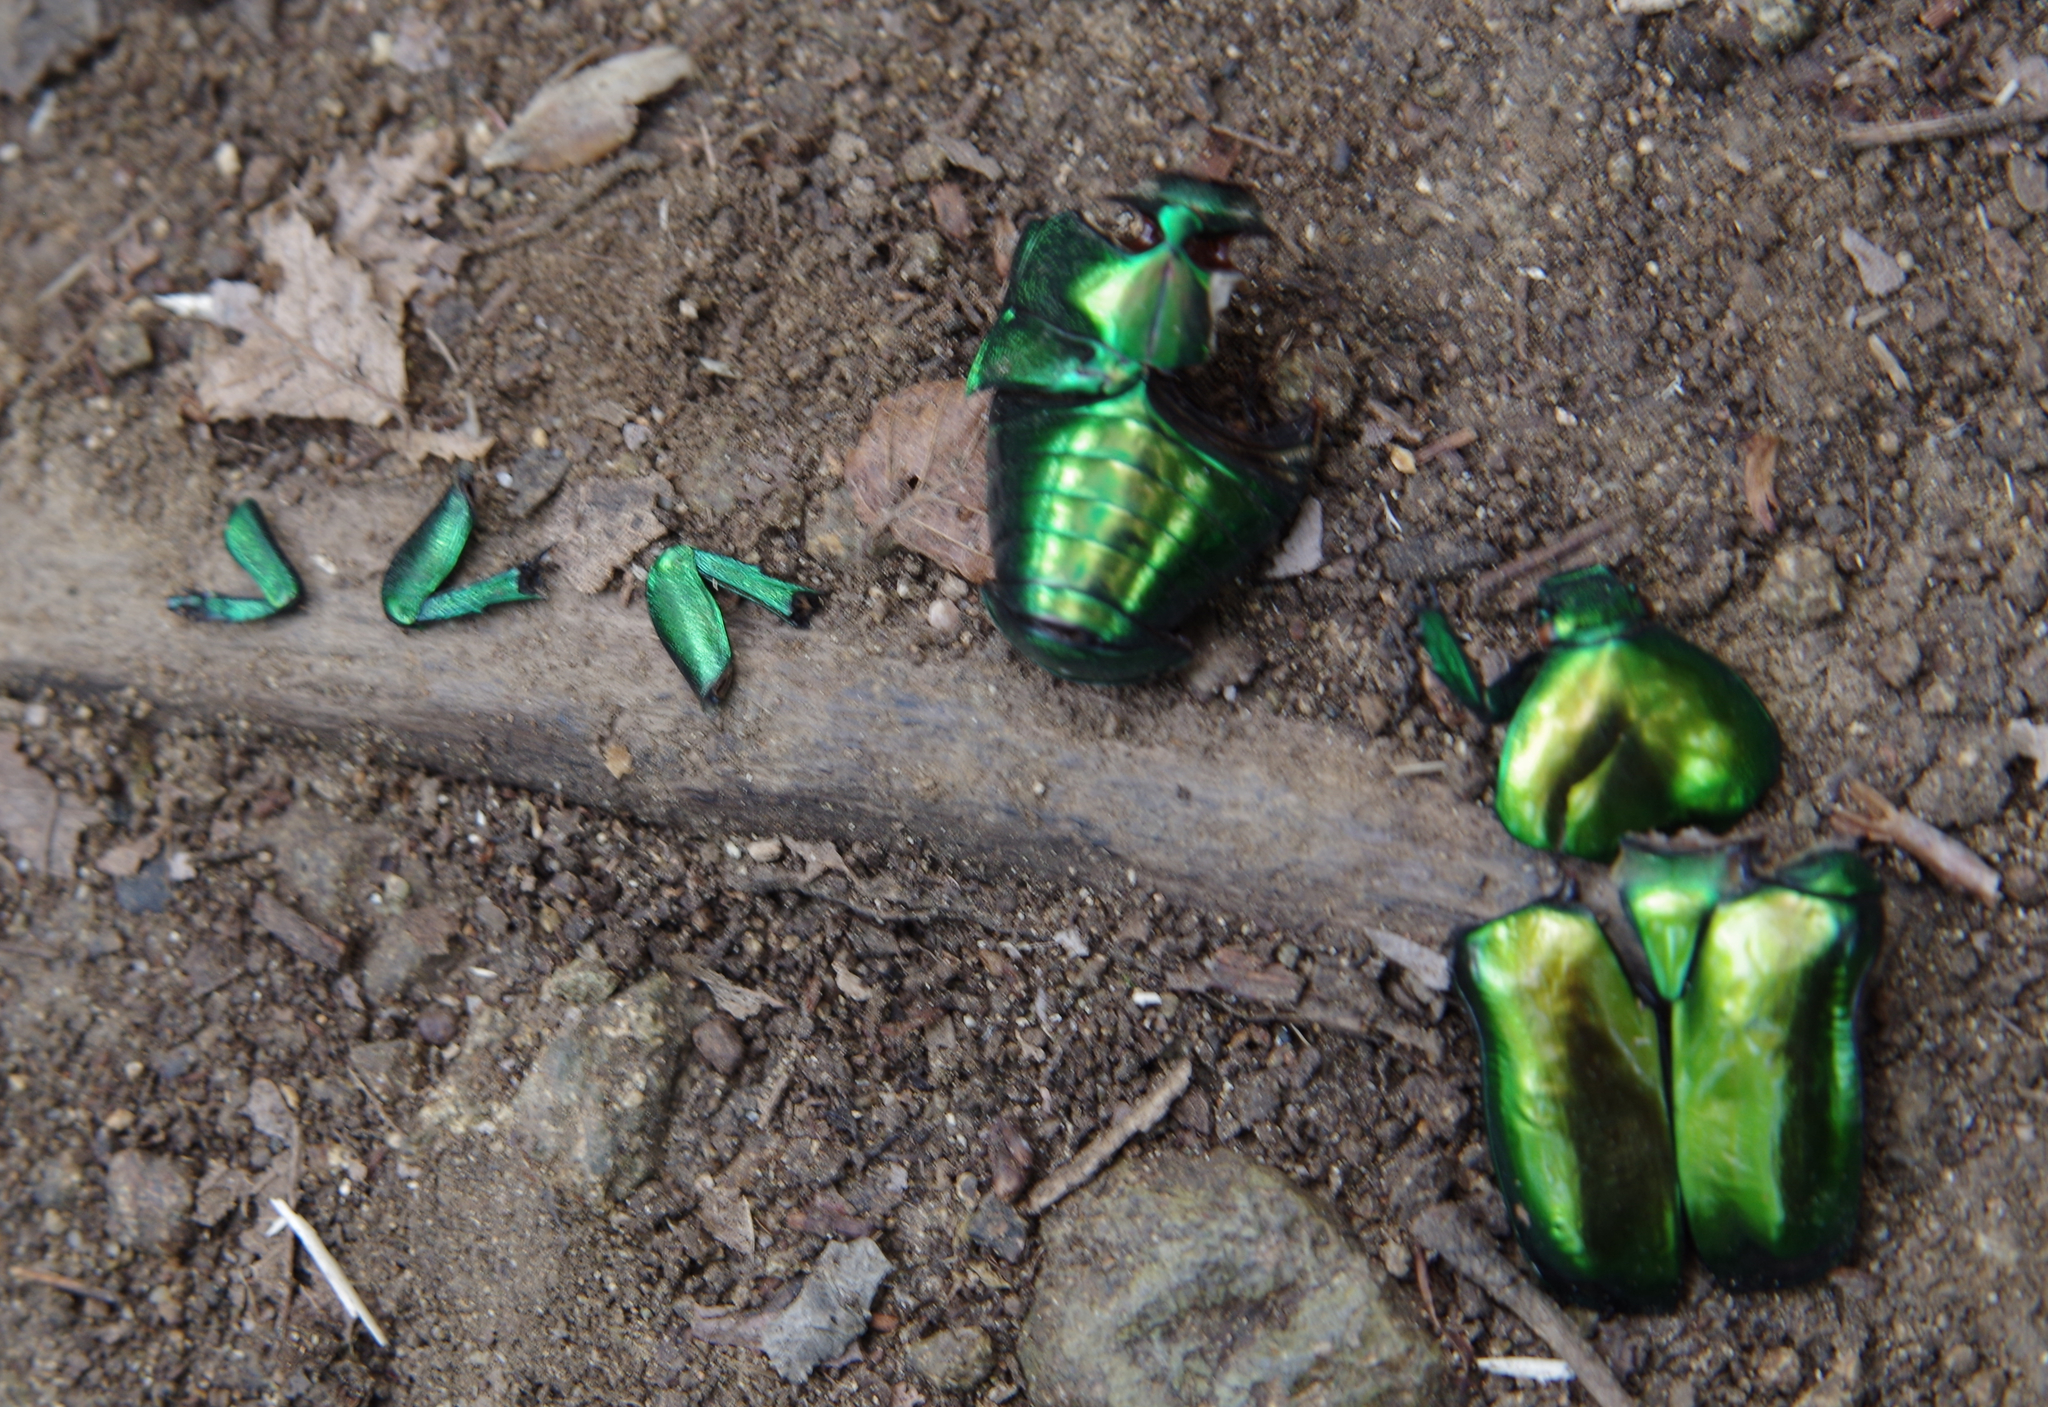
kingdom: Animalia
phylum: Arthropoda
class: Insecta
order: Coleoptera
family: Scarabaeidae
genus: Protaetia
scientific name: Protaetia speciosissima
